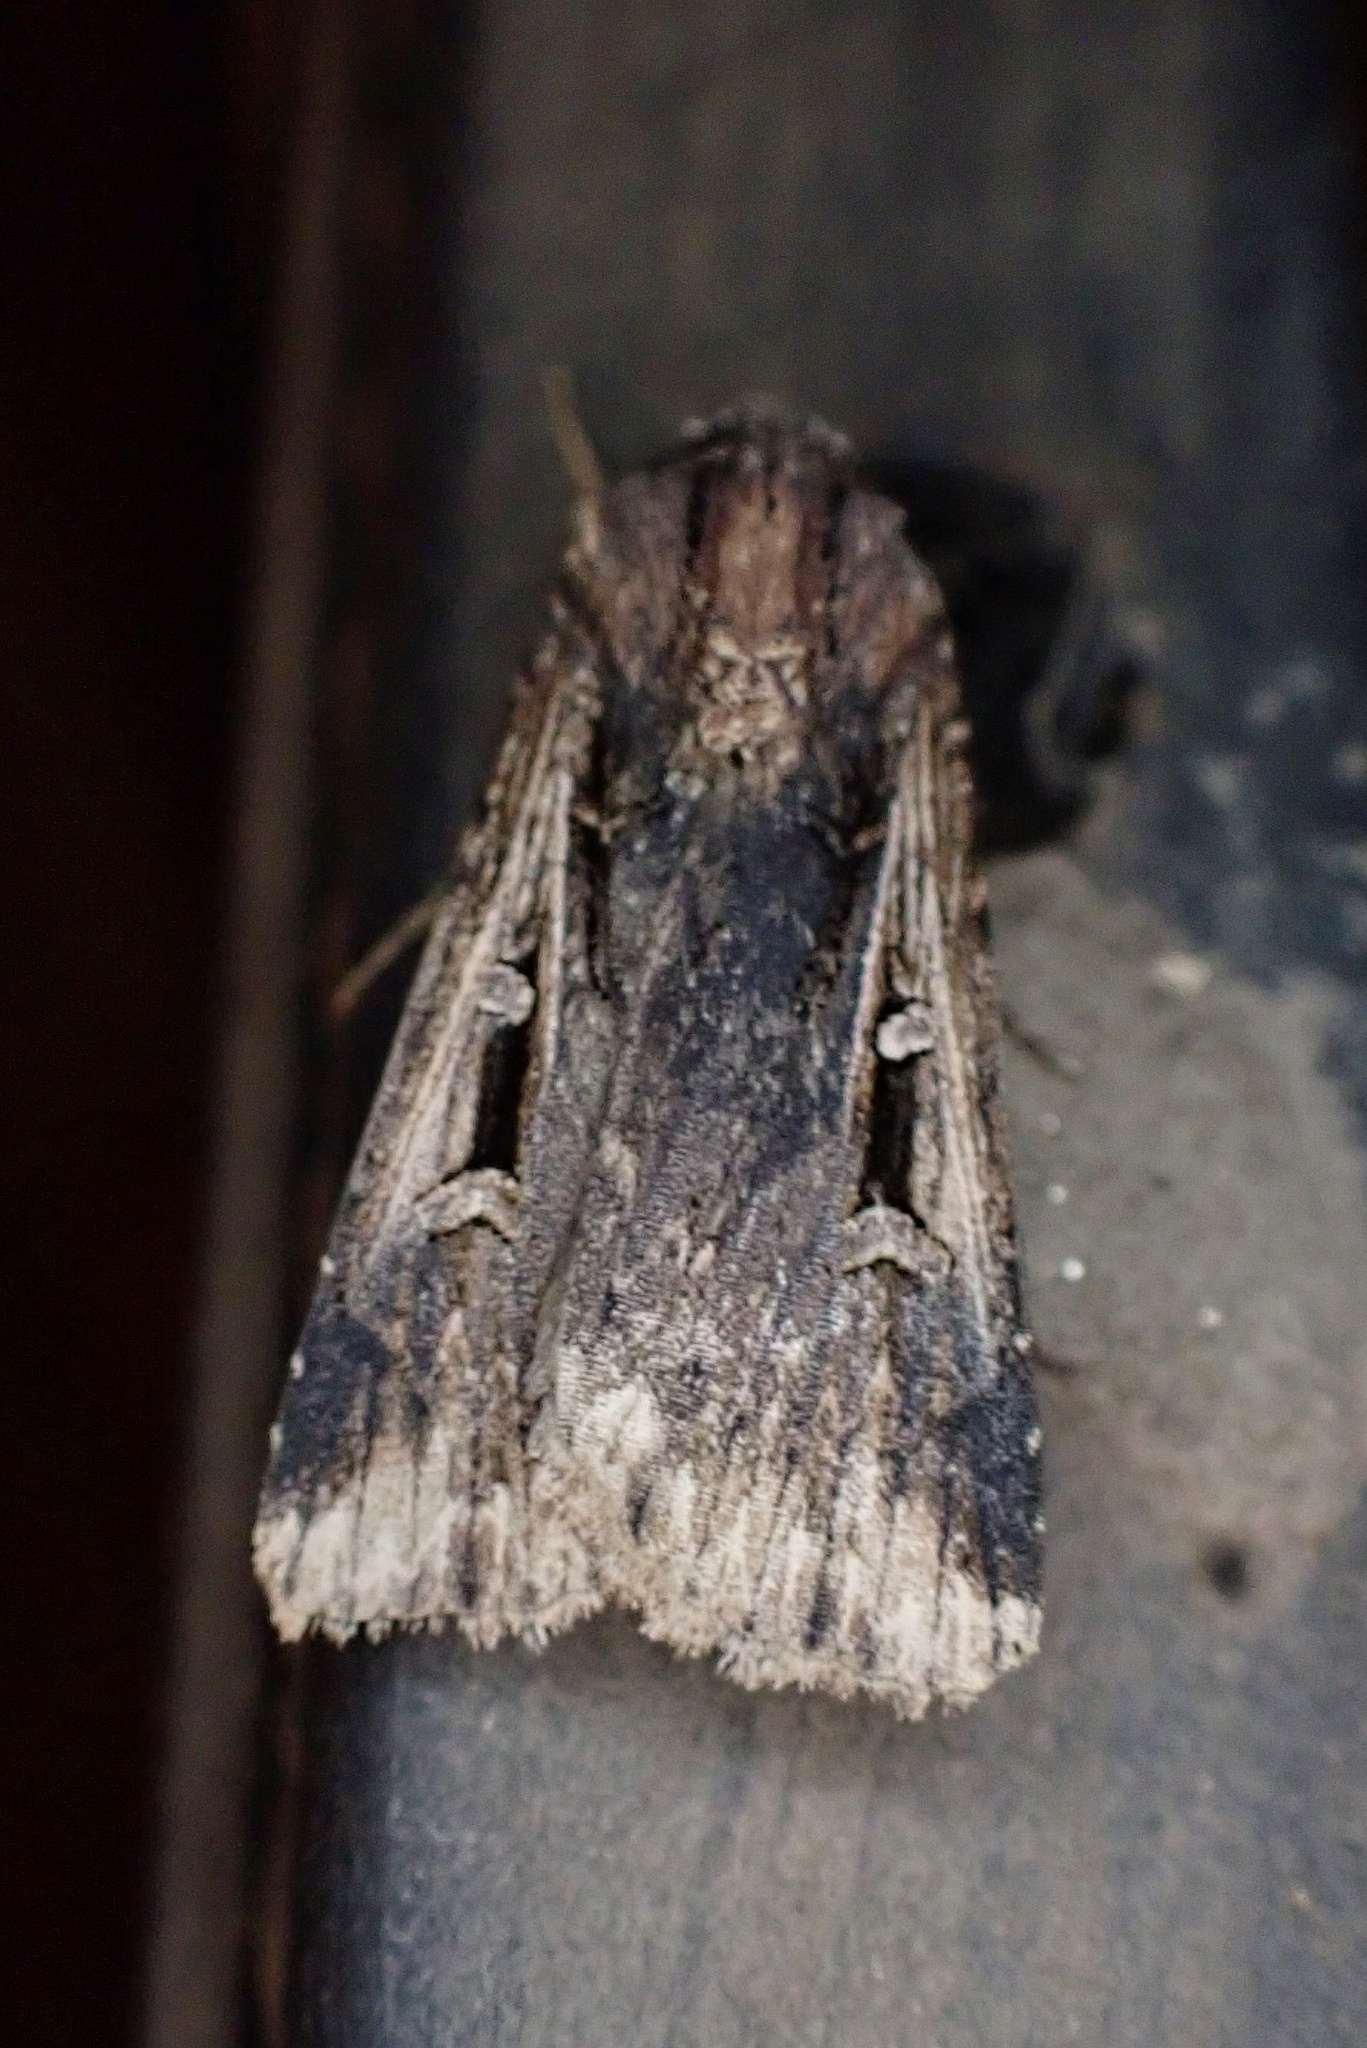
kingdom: Animalia
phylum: Arthropoda
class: Insecta
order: Lepidoptera
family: Noctuidae
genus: Feltia
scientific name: Feltia subterranea
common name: Granulate cutworm
